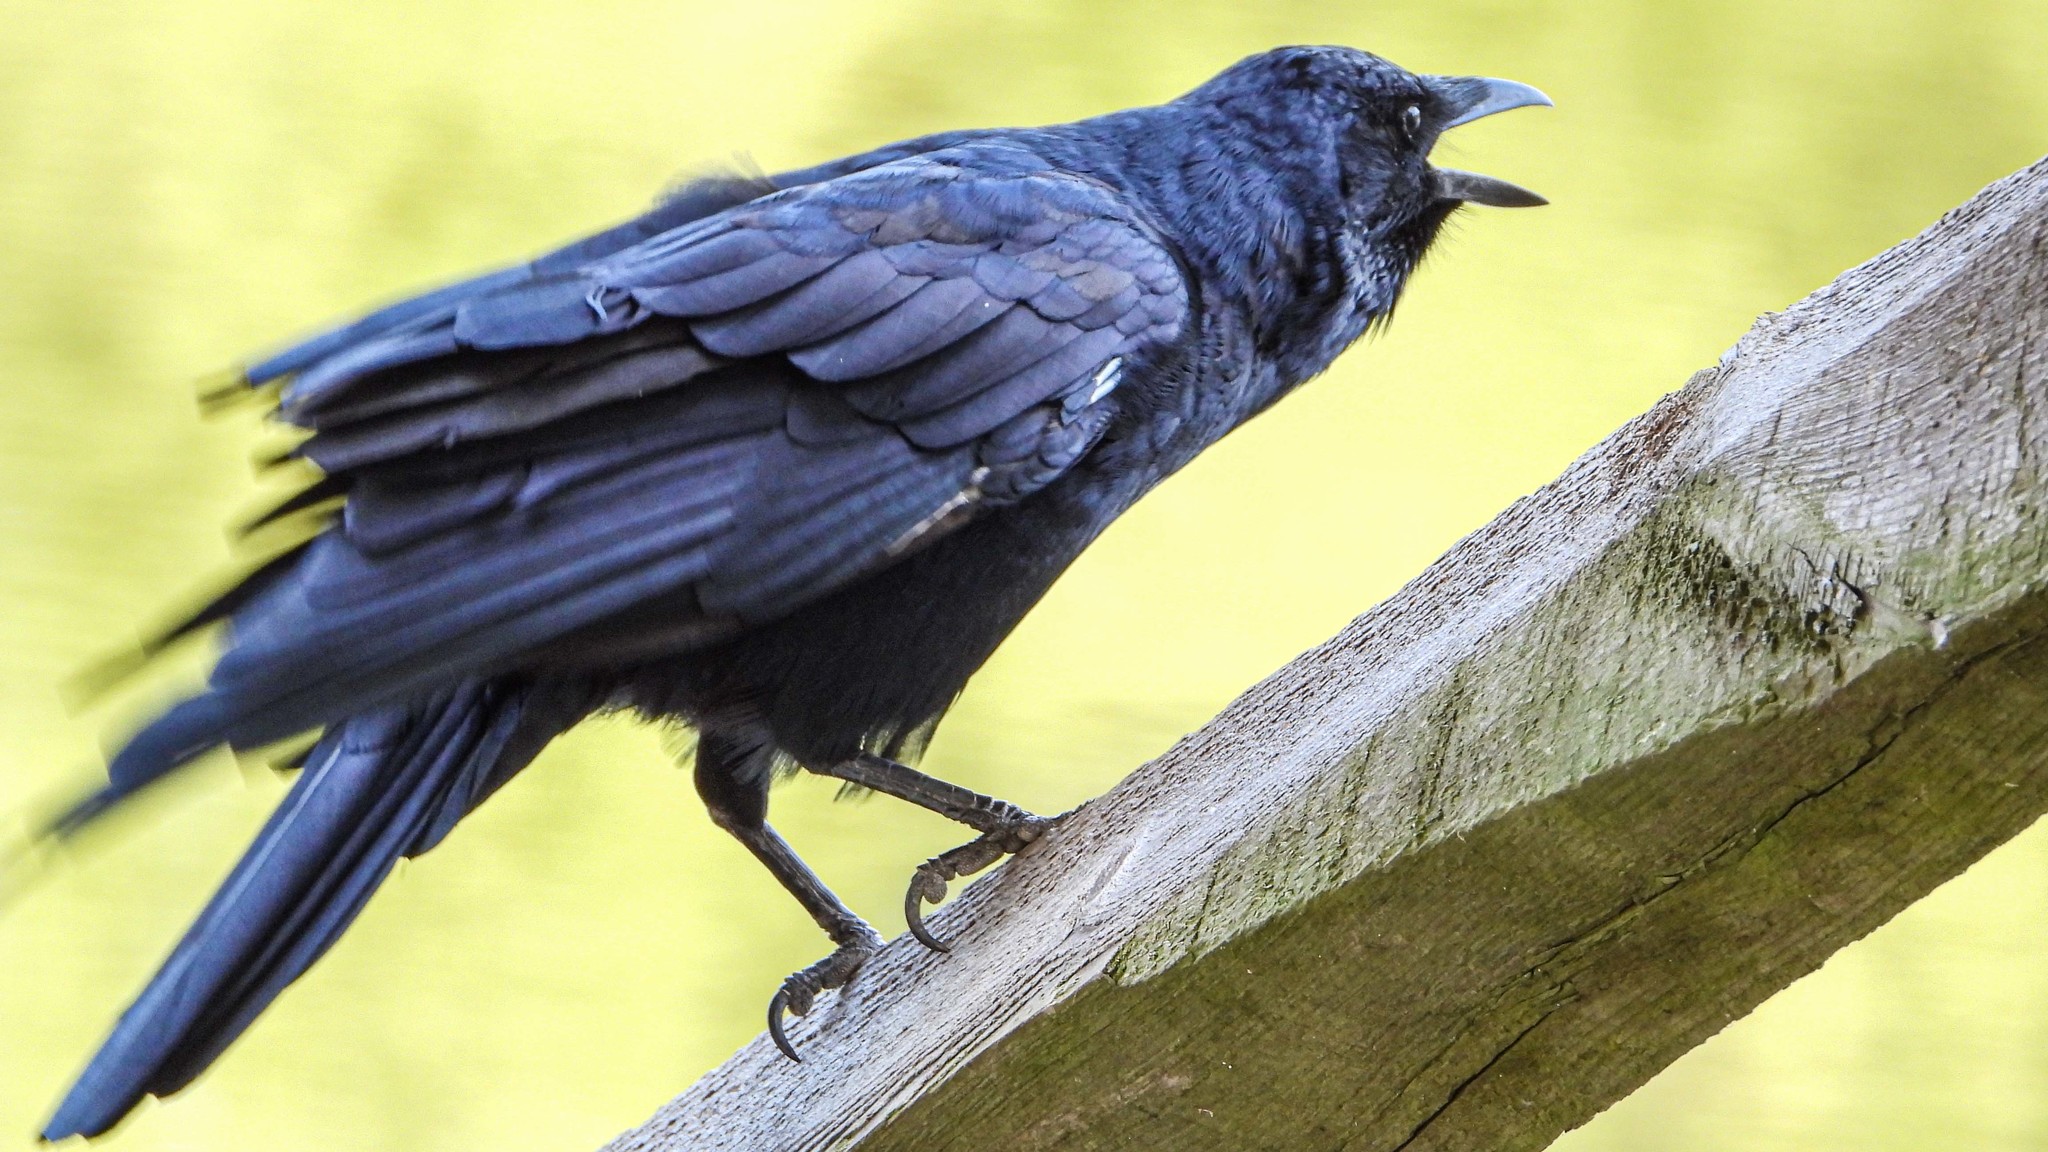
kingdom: Animalia
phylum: Chordata
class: Aves
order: Passeriformes
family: Corvidae
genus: Corvus
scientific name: Corvus ossifragus
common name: Fish crow
